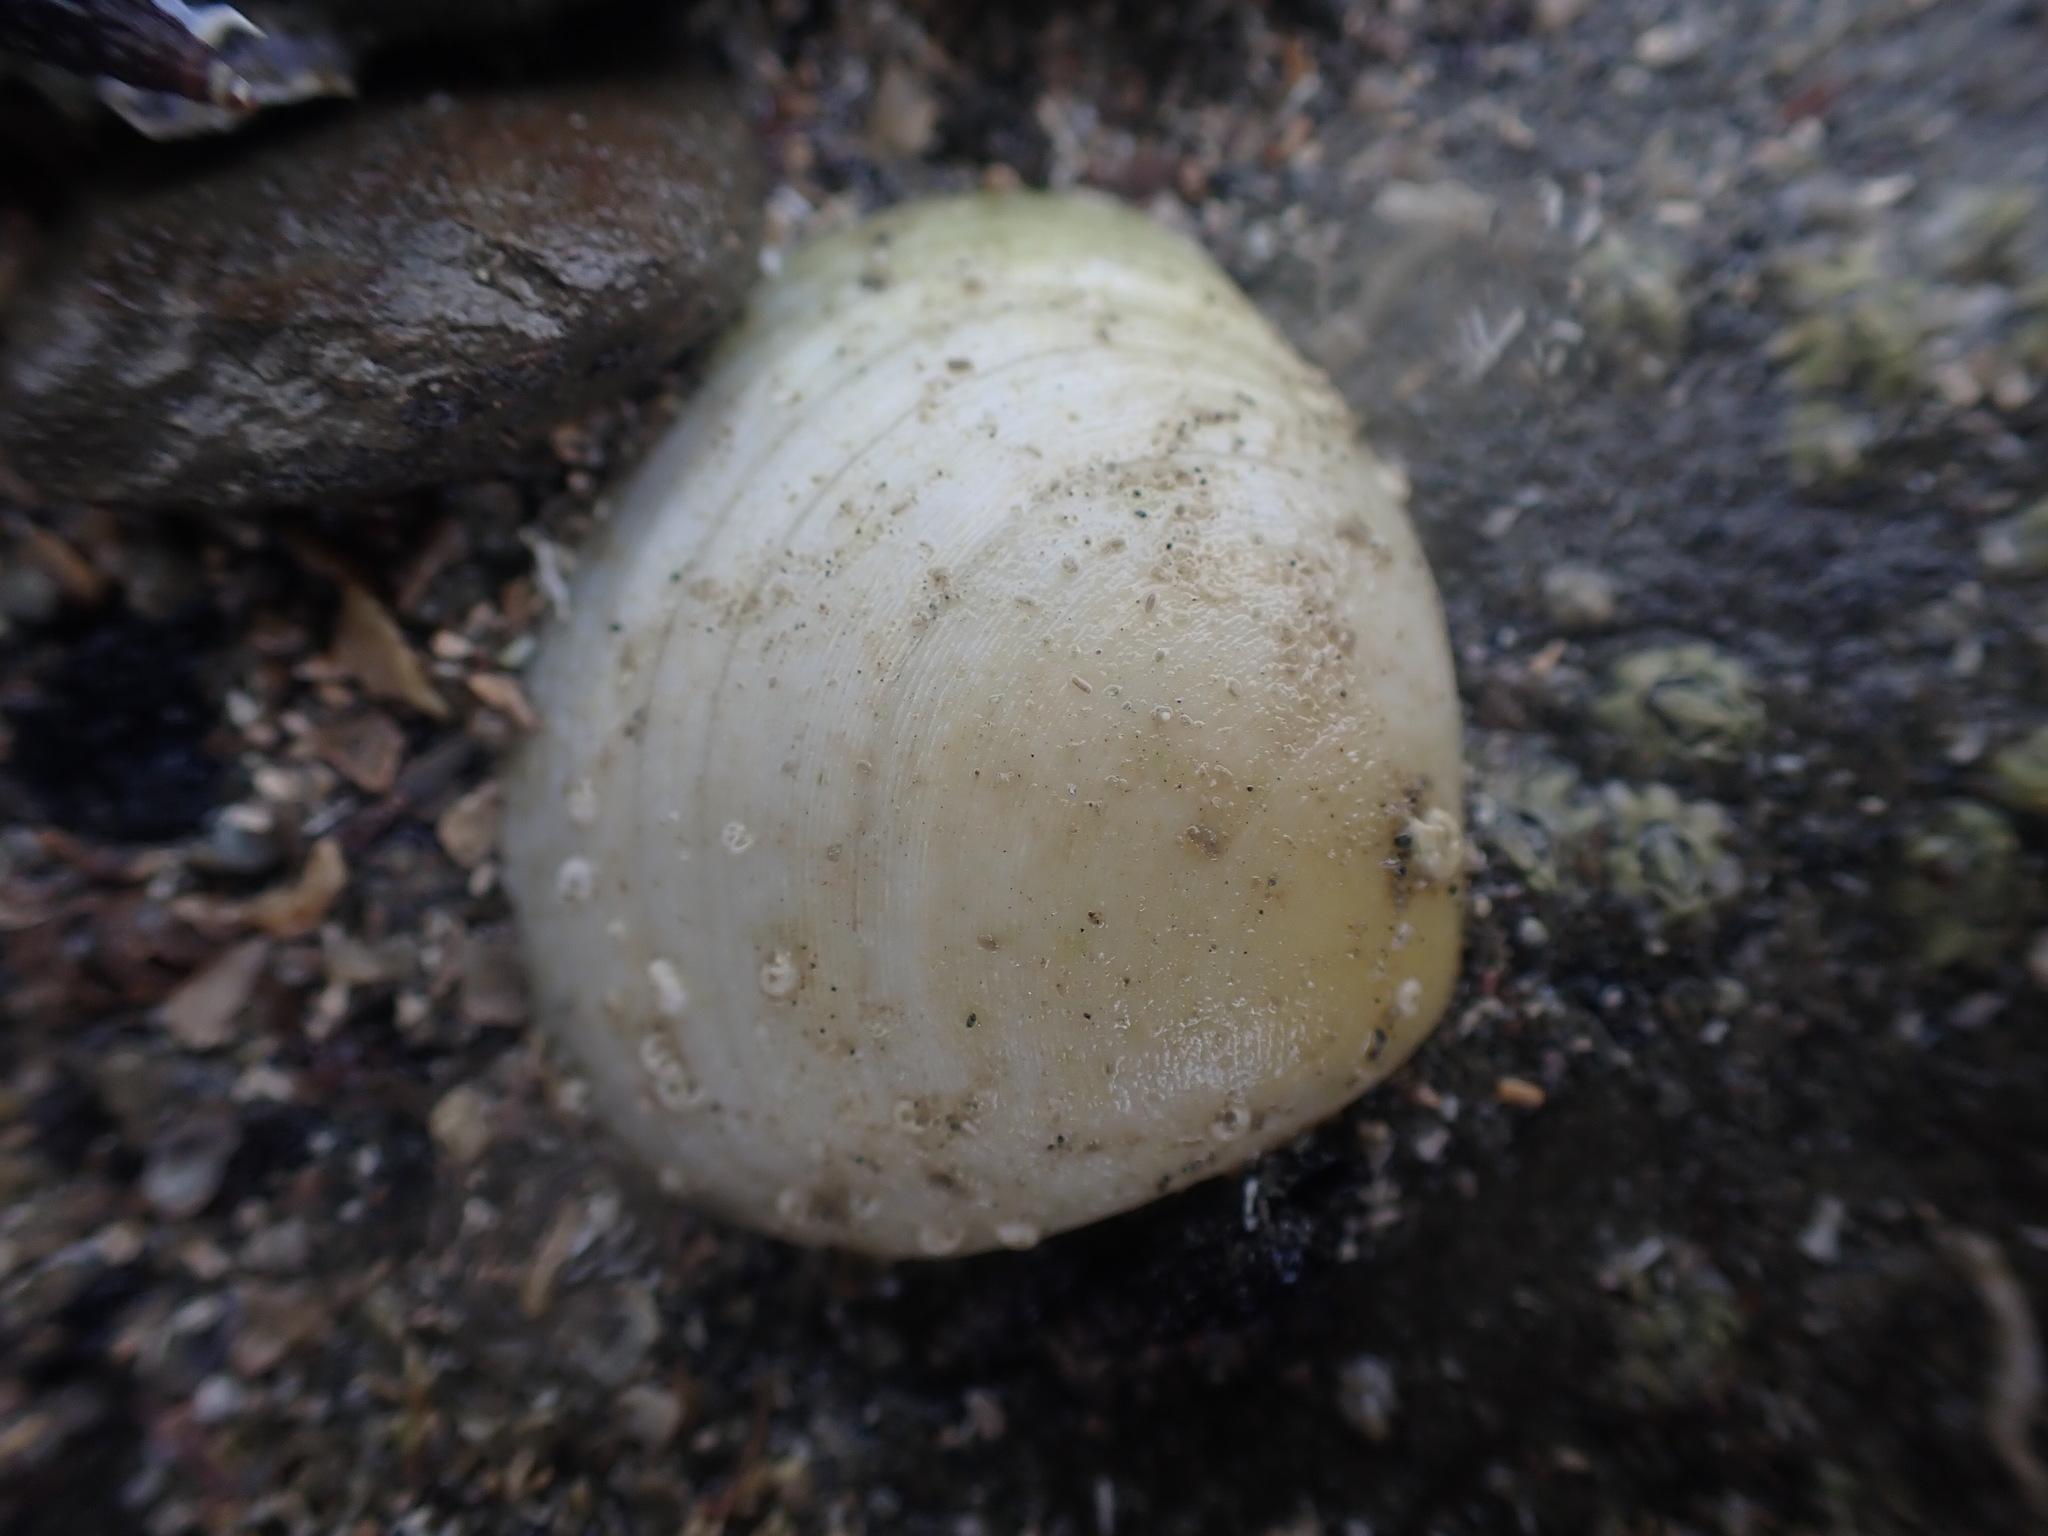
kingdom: Animalia
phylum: Mollusca
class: Bivalvia
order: Cardiida
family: Tellinidae
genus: Pseudarcopagia
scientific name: Pseudarcopagia disculus
